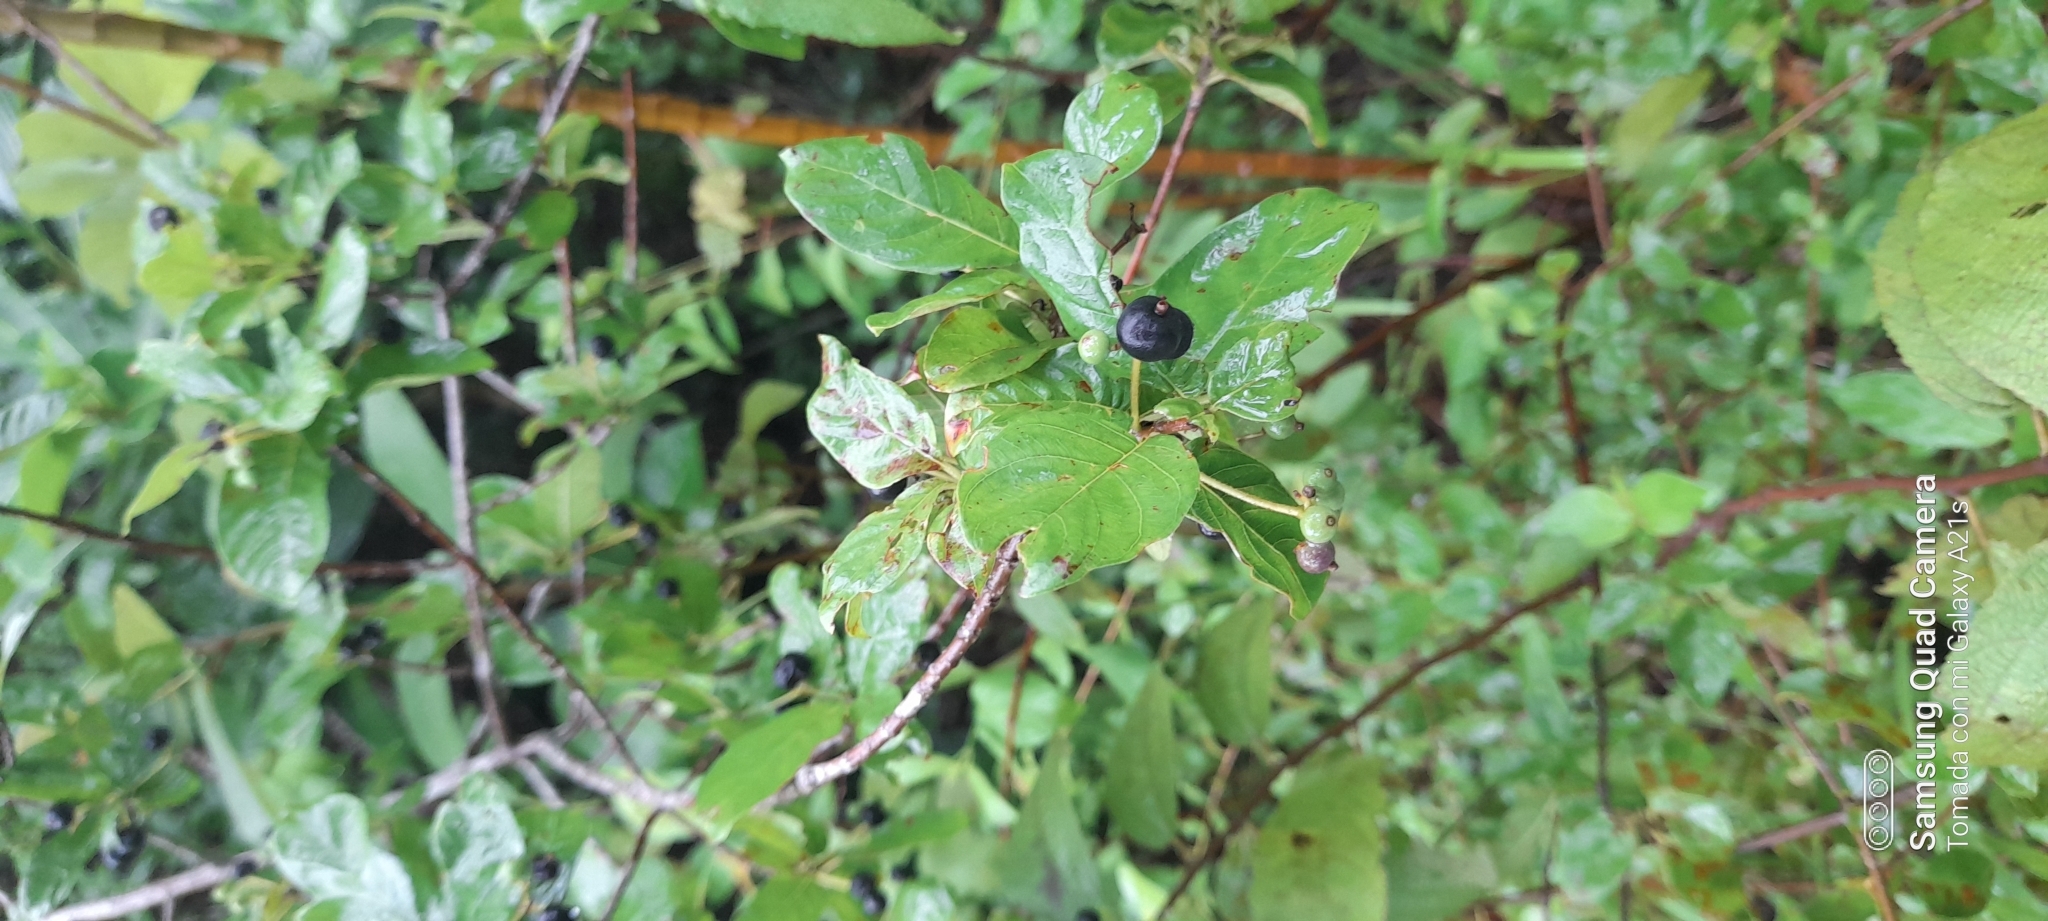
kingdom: Plantae
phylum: Tracheophyta
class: Magnoliopsida
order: Lamiales
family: Gesneriaceae
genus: Kohleria
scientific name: Kohleria tubiflora
